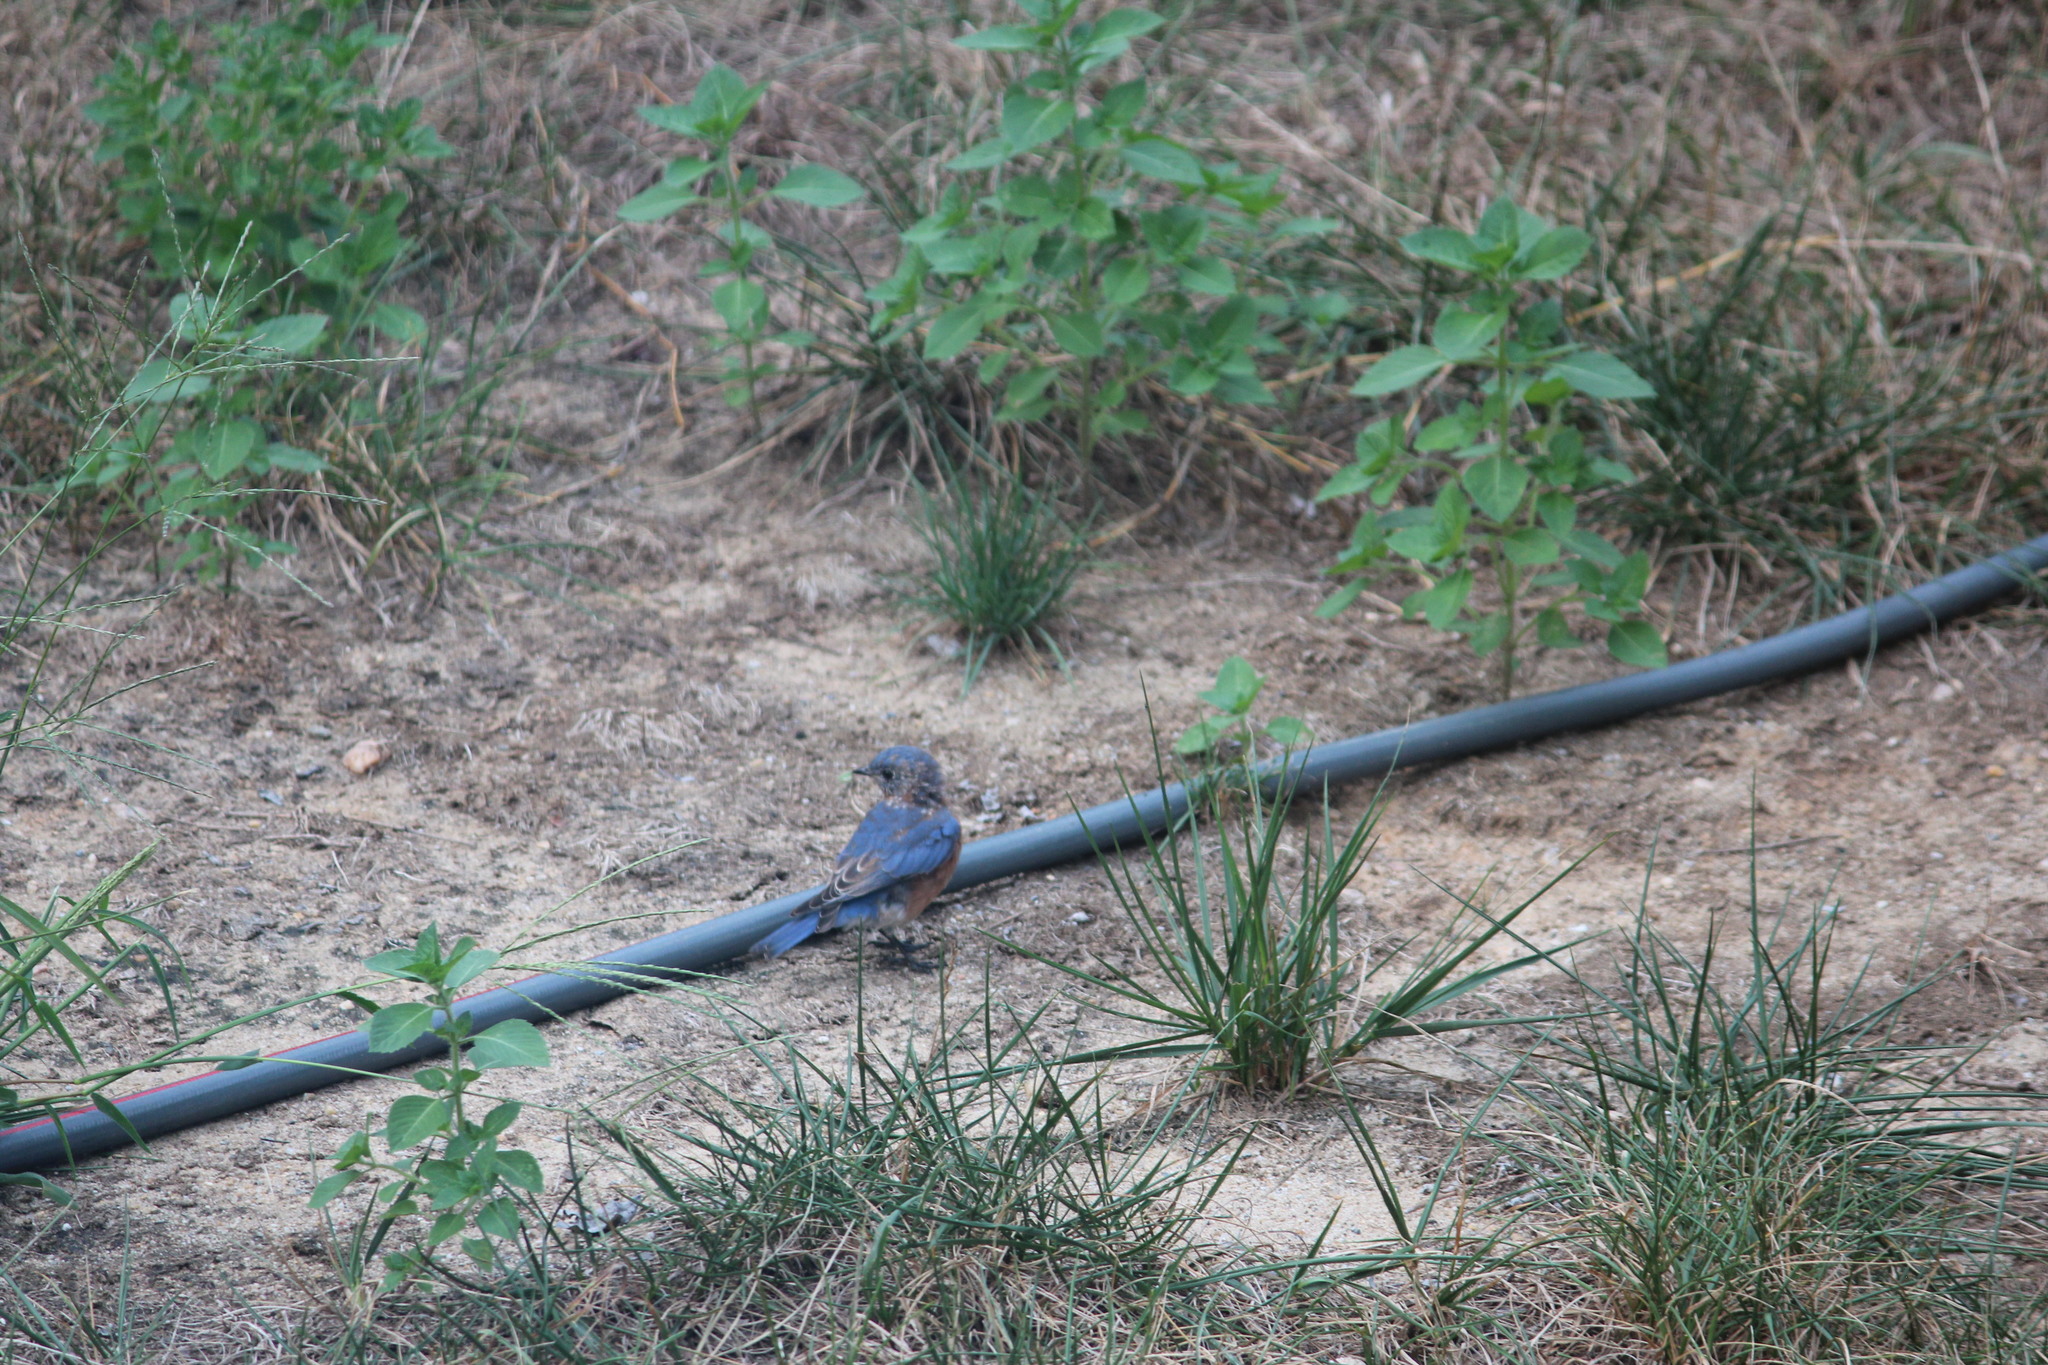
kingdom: Animalia
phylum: Chordata
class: Aves
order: Passeriformes
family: Turdidae
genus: Sialia
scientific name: Sialia sialis
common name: Eastern bluebird
